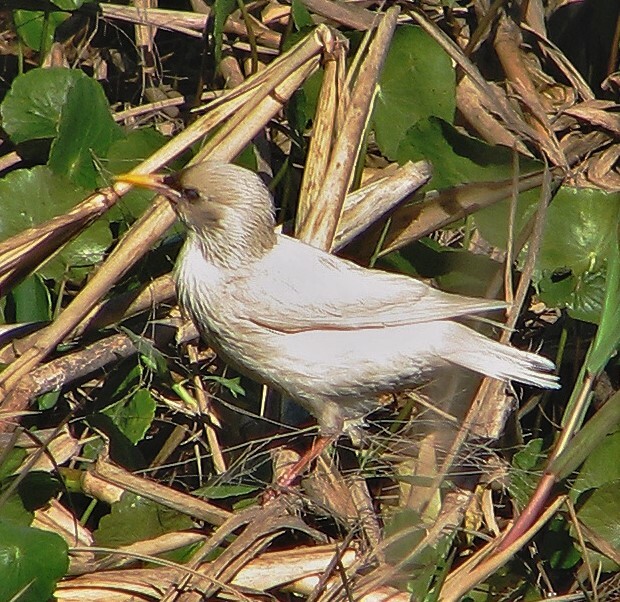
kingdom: Animalia
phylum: Chordata
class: Aves
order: Passeriformes
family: Sturnidae
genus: Sturnus
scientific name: Sturnus vulgaris
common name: Common starling
